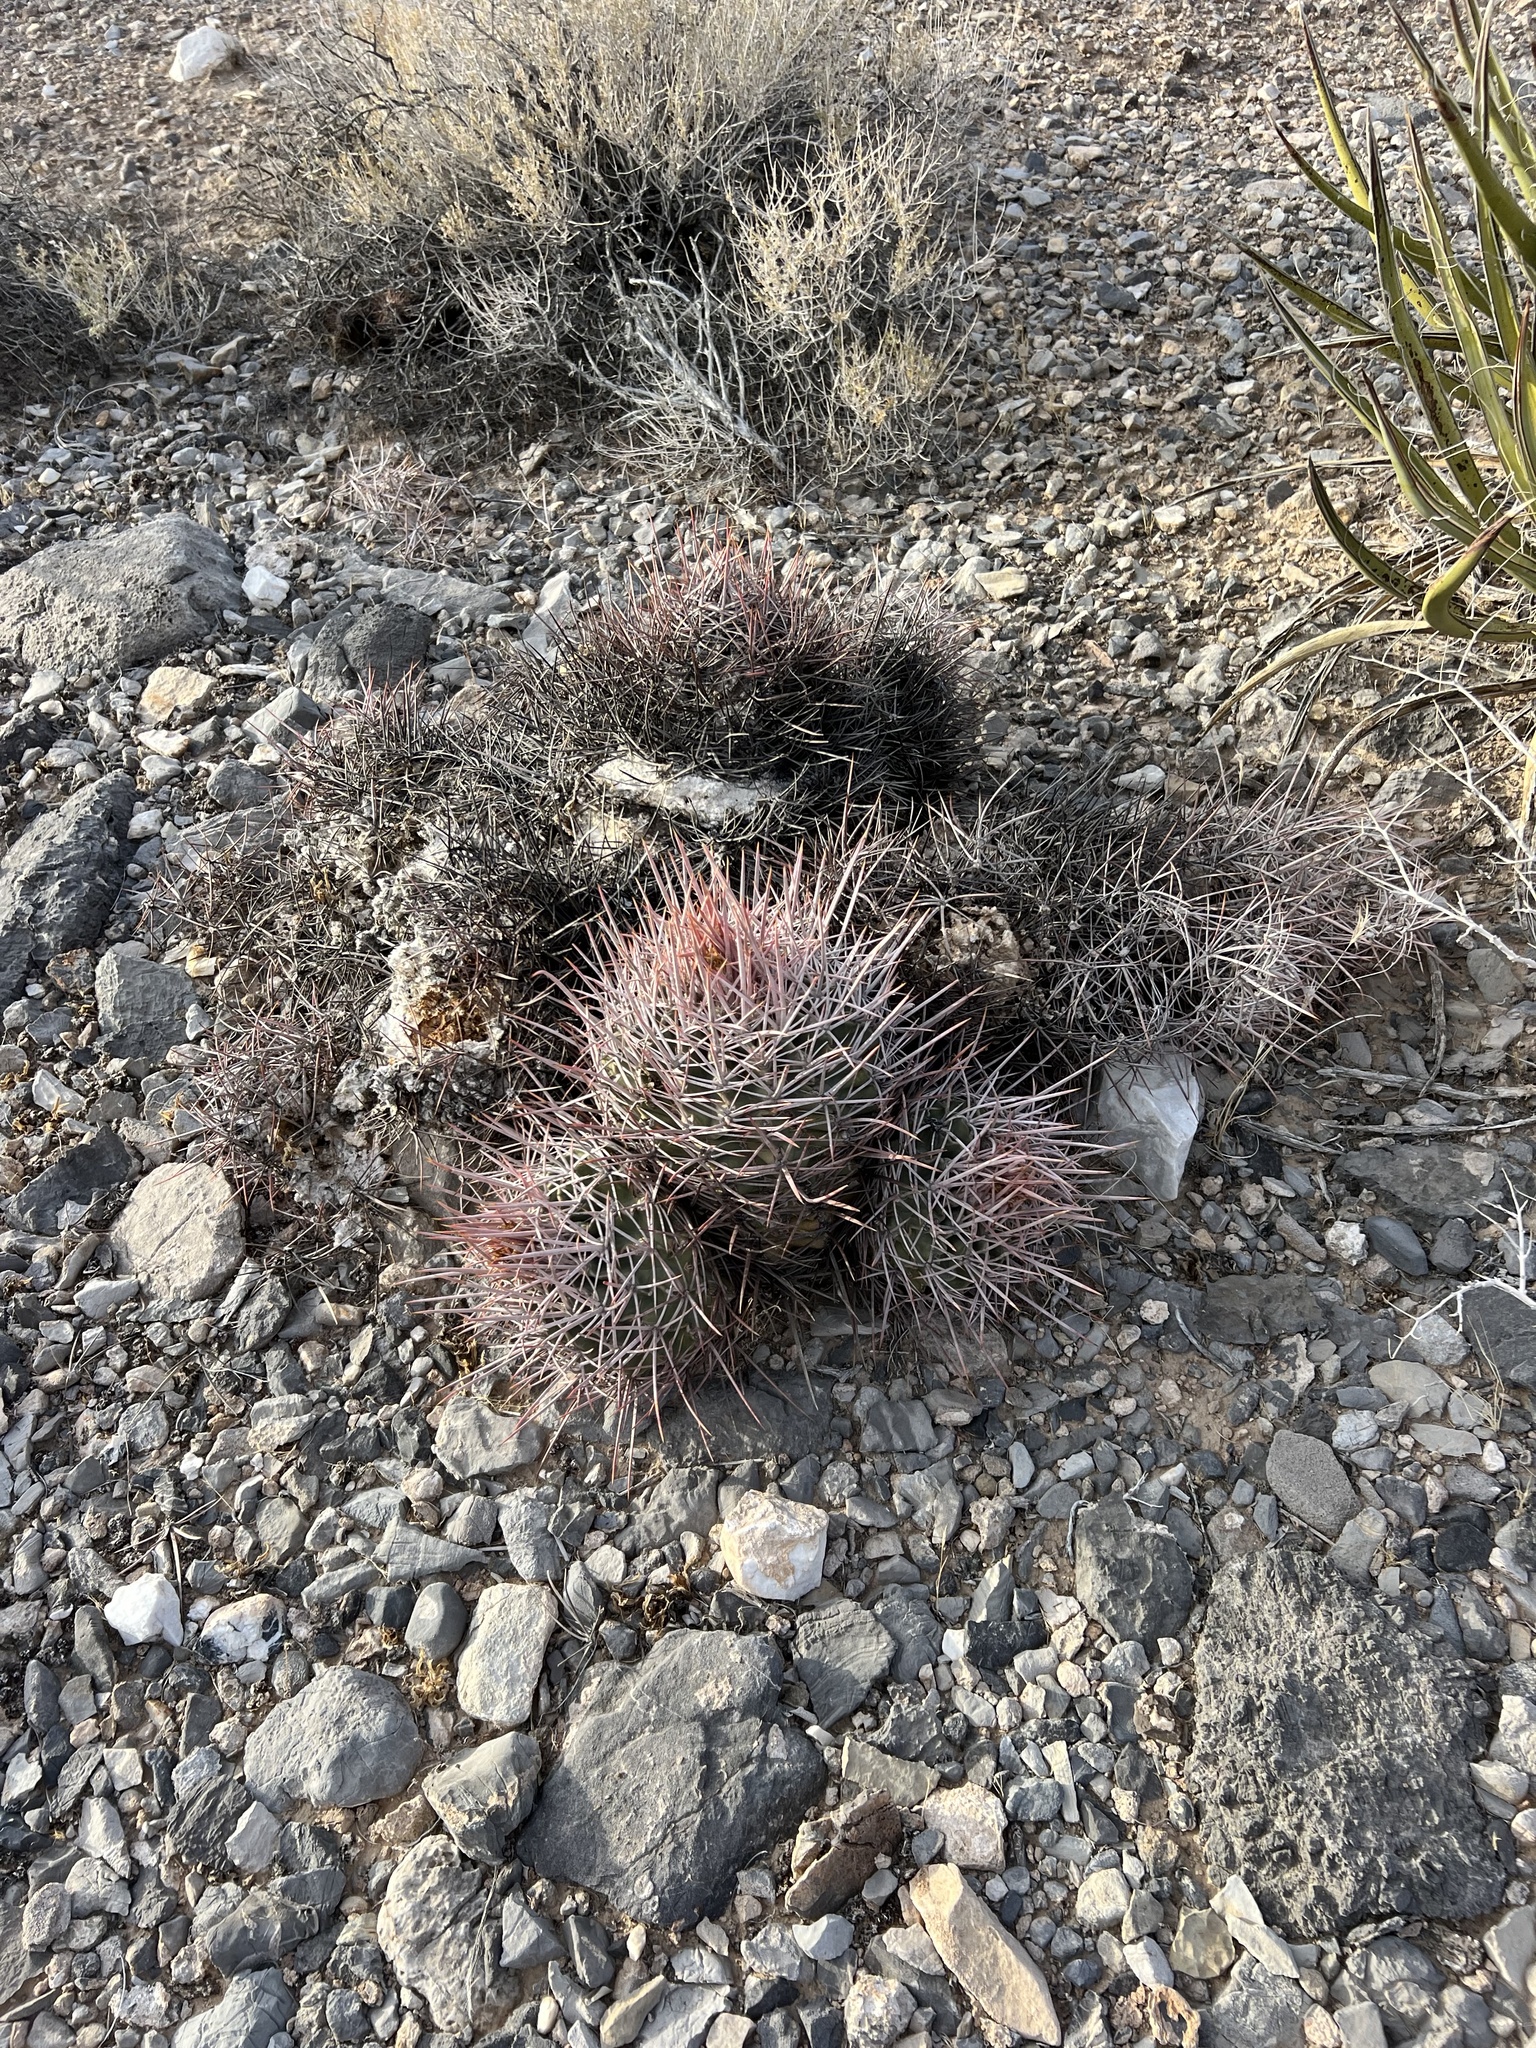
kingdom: Plantae
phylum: Tracheophyta
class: Magnoliopsida
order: Caryophyllales
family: Cactaceae
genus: Echinocactus
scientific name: Echinocactus polycephalus
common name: Cottontop cactus
